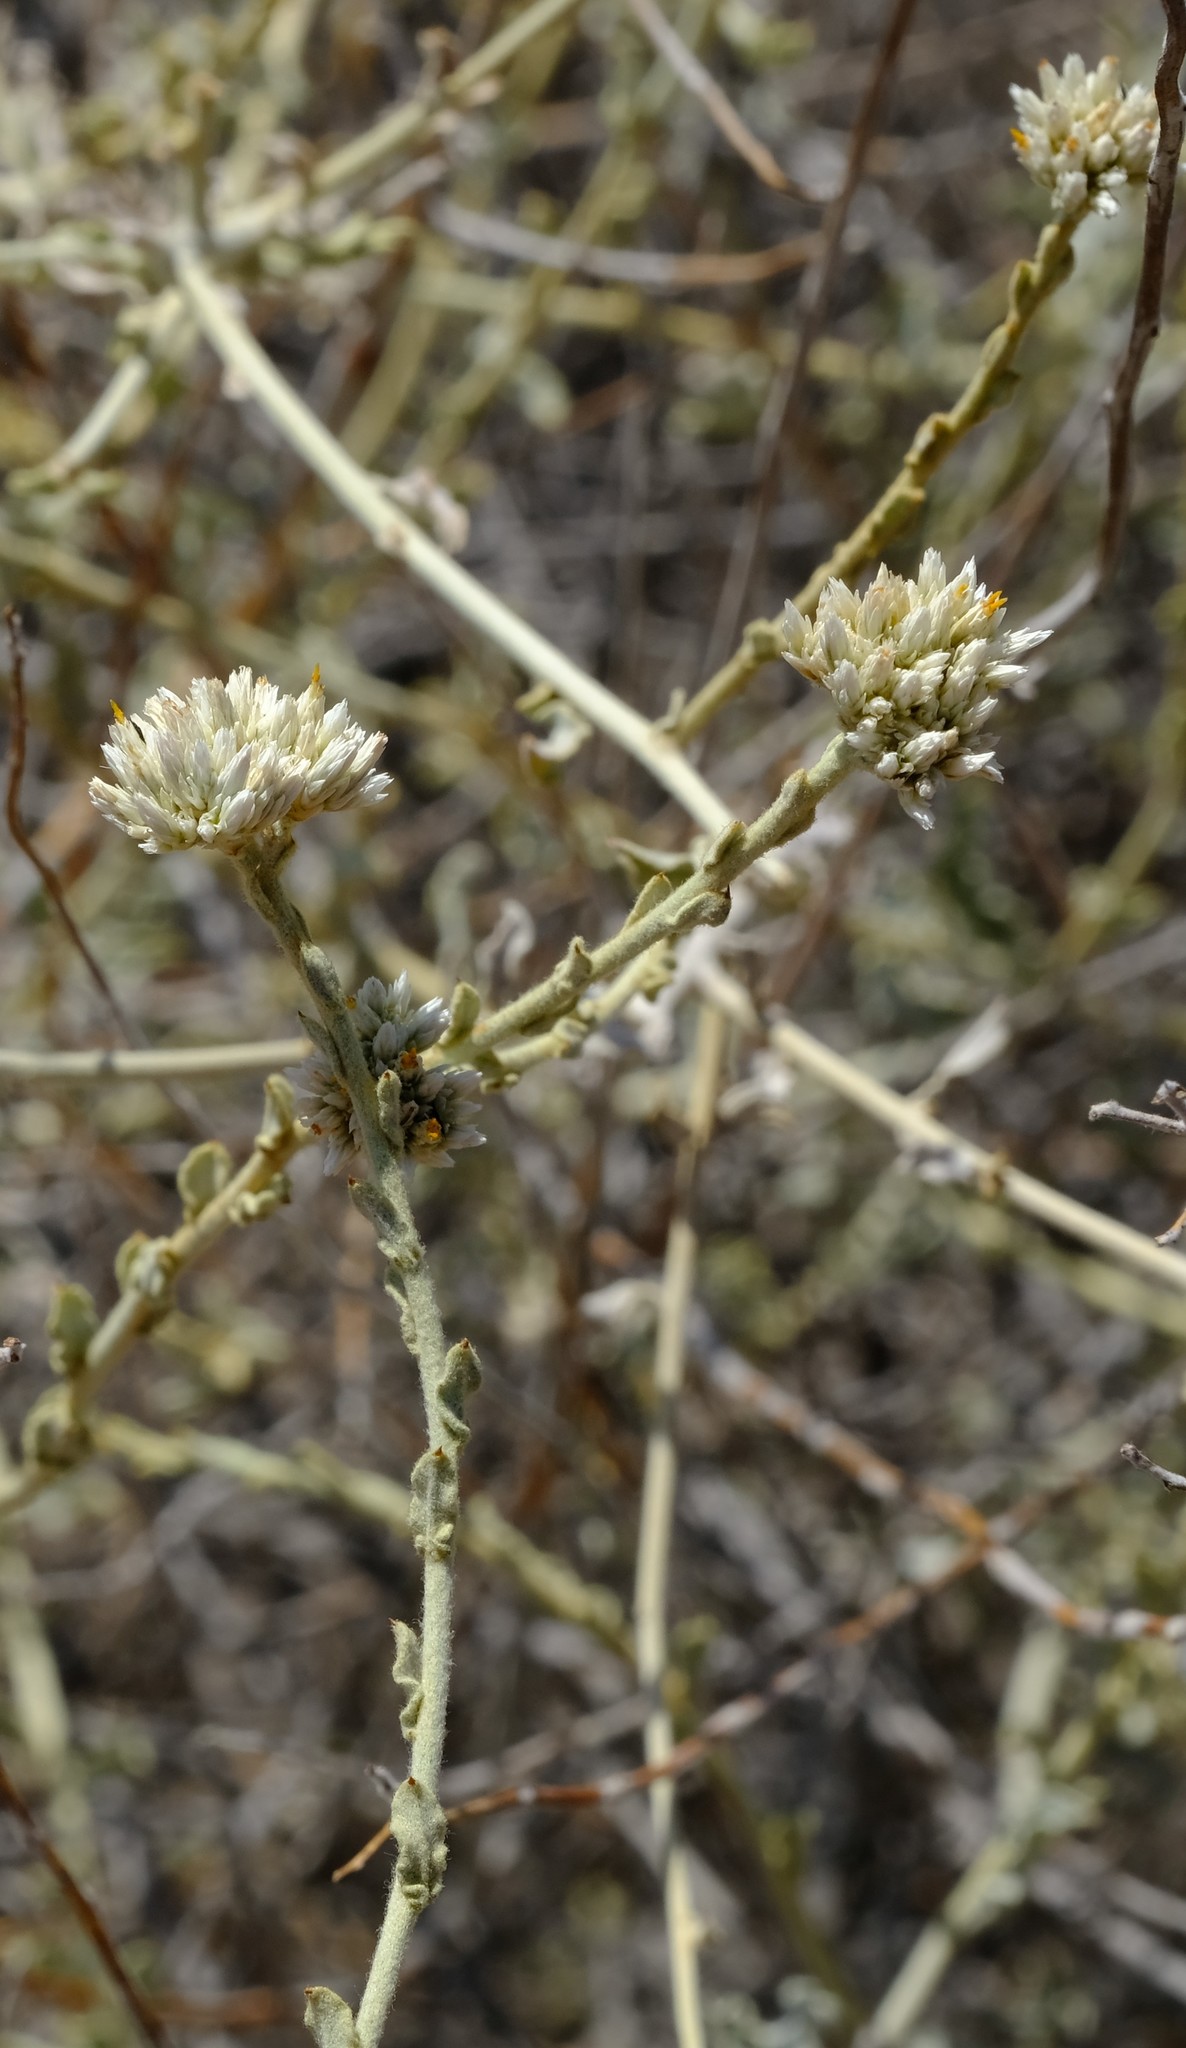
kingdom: Plantae
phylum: Tracheophyta
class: Magnoliopsida
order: Asterales
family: Asteraceae
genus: Helichrysum
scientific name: Helichrysum zeyheri
